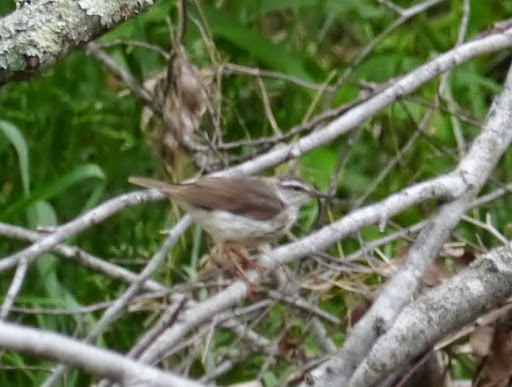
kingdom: Animalia
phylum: Chordata
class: Aves
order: Passeriformes
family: Parulidae
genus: Parkesia
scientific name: Parkesia motacilla
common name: Louisiana waterthrush
